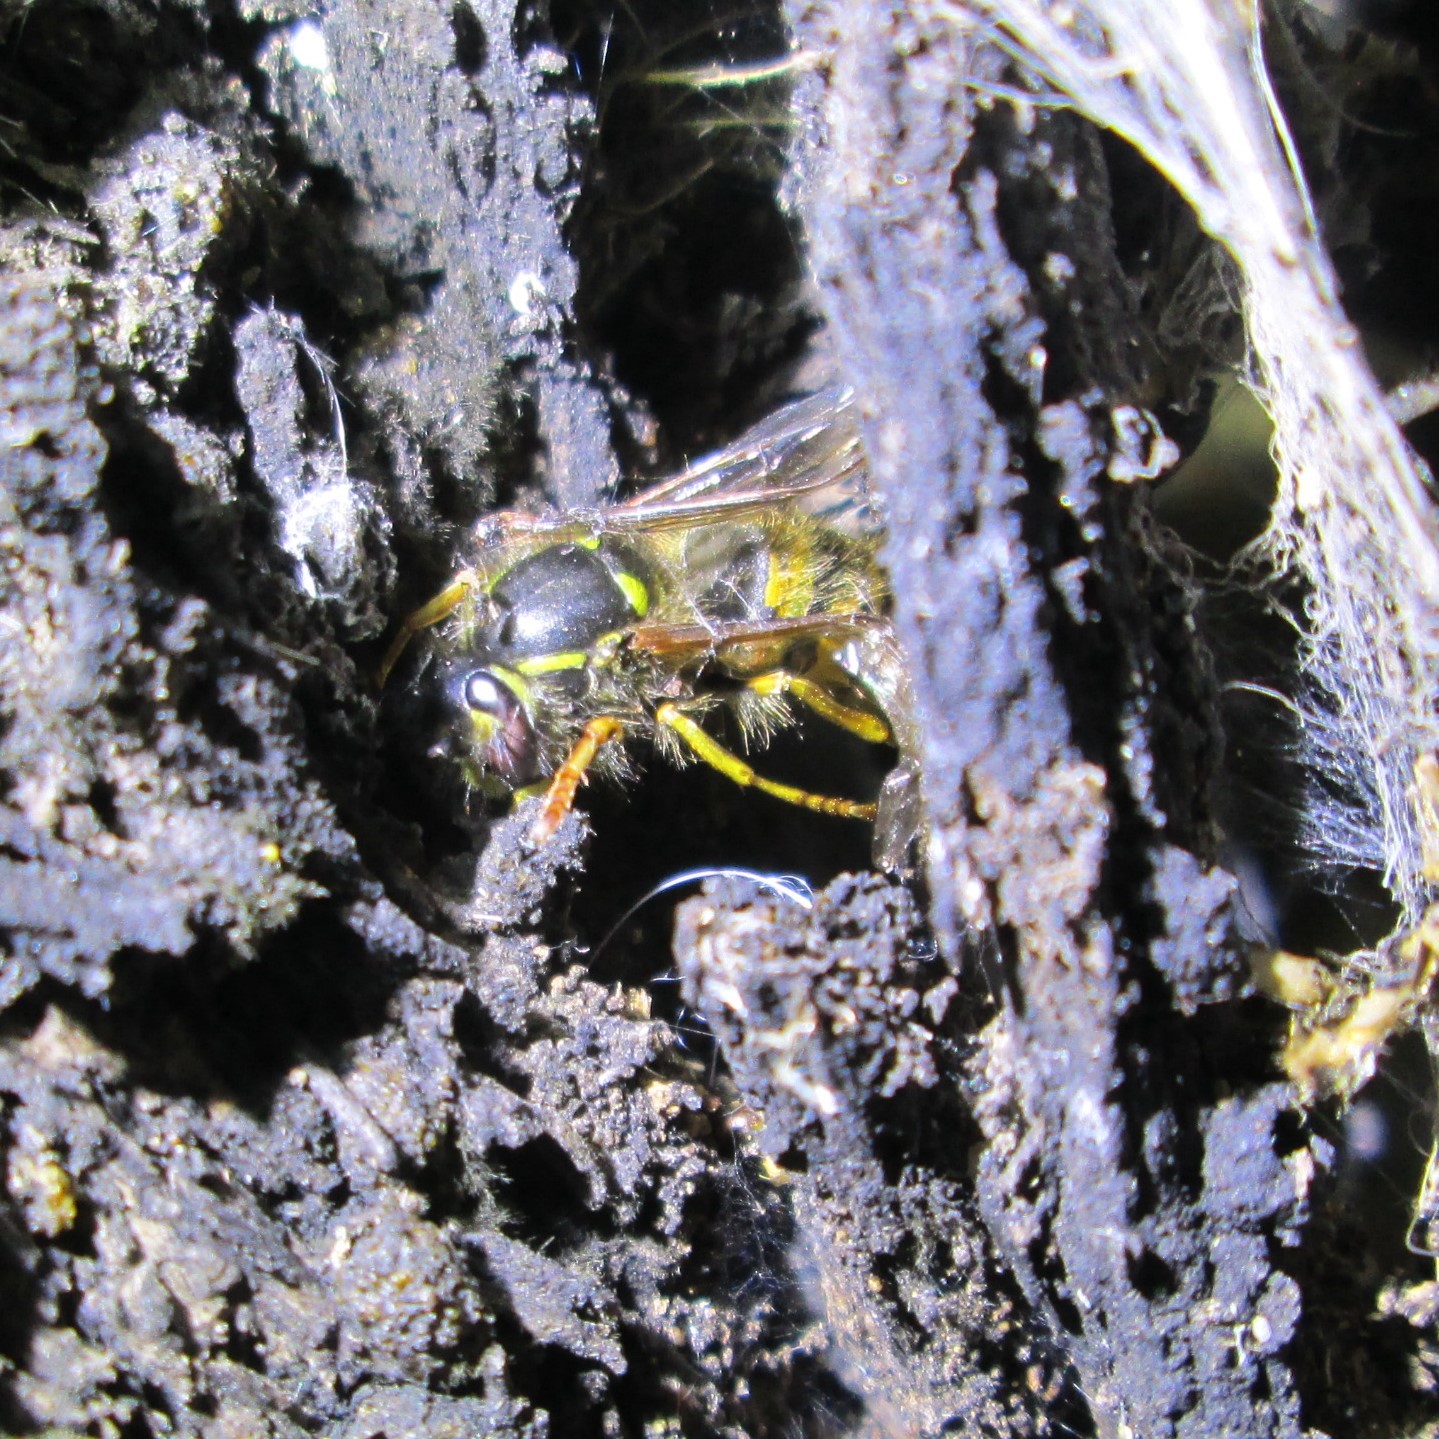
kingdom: Animalia
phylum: Arthropoda
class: Insecta
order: Hymenoptera
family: Vespidae
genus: Vespula
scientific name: Vespula vulgaris
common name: Common wasp
